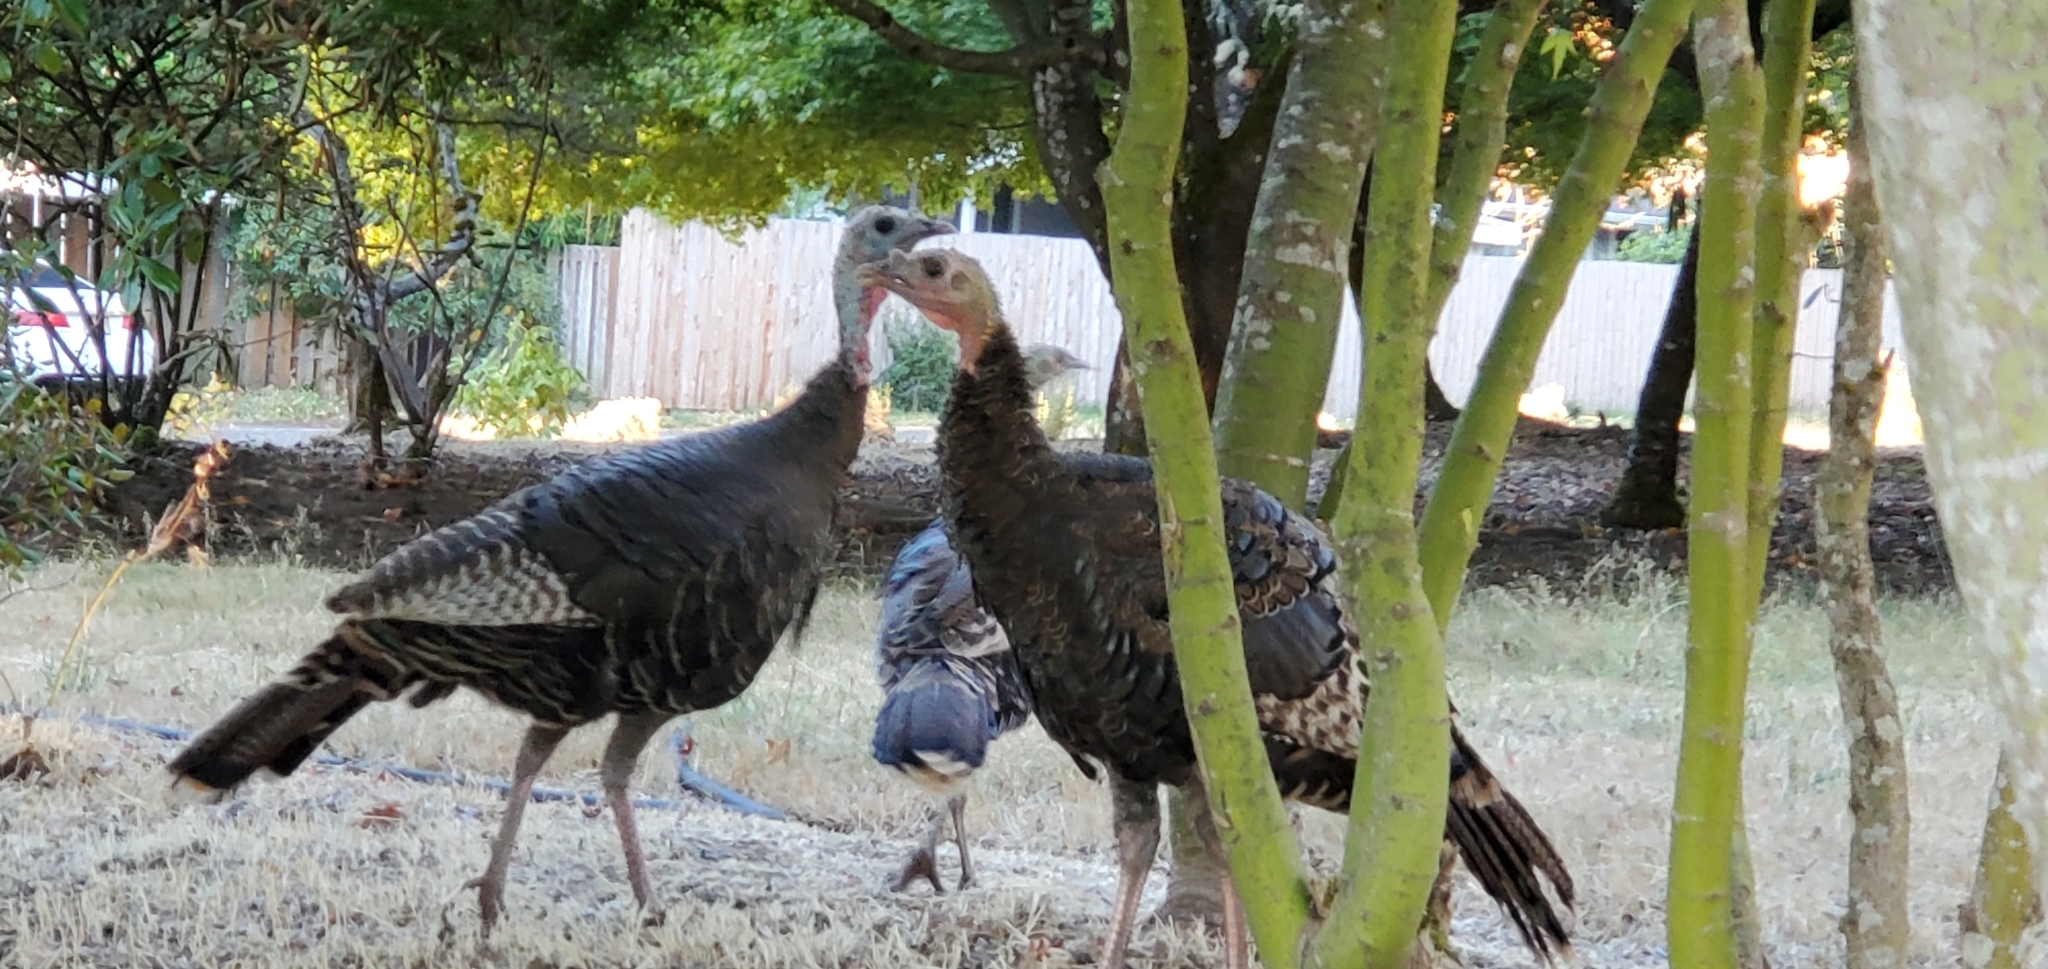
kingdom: Animalia
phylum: Chordata
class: Aves
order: Galliformes
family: Phasianidae
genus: Meleagris
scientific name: Meleagris gallopavo
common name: Wild turkey
